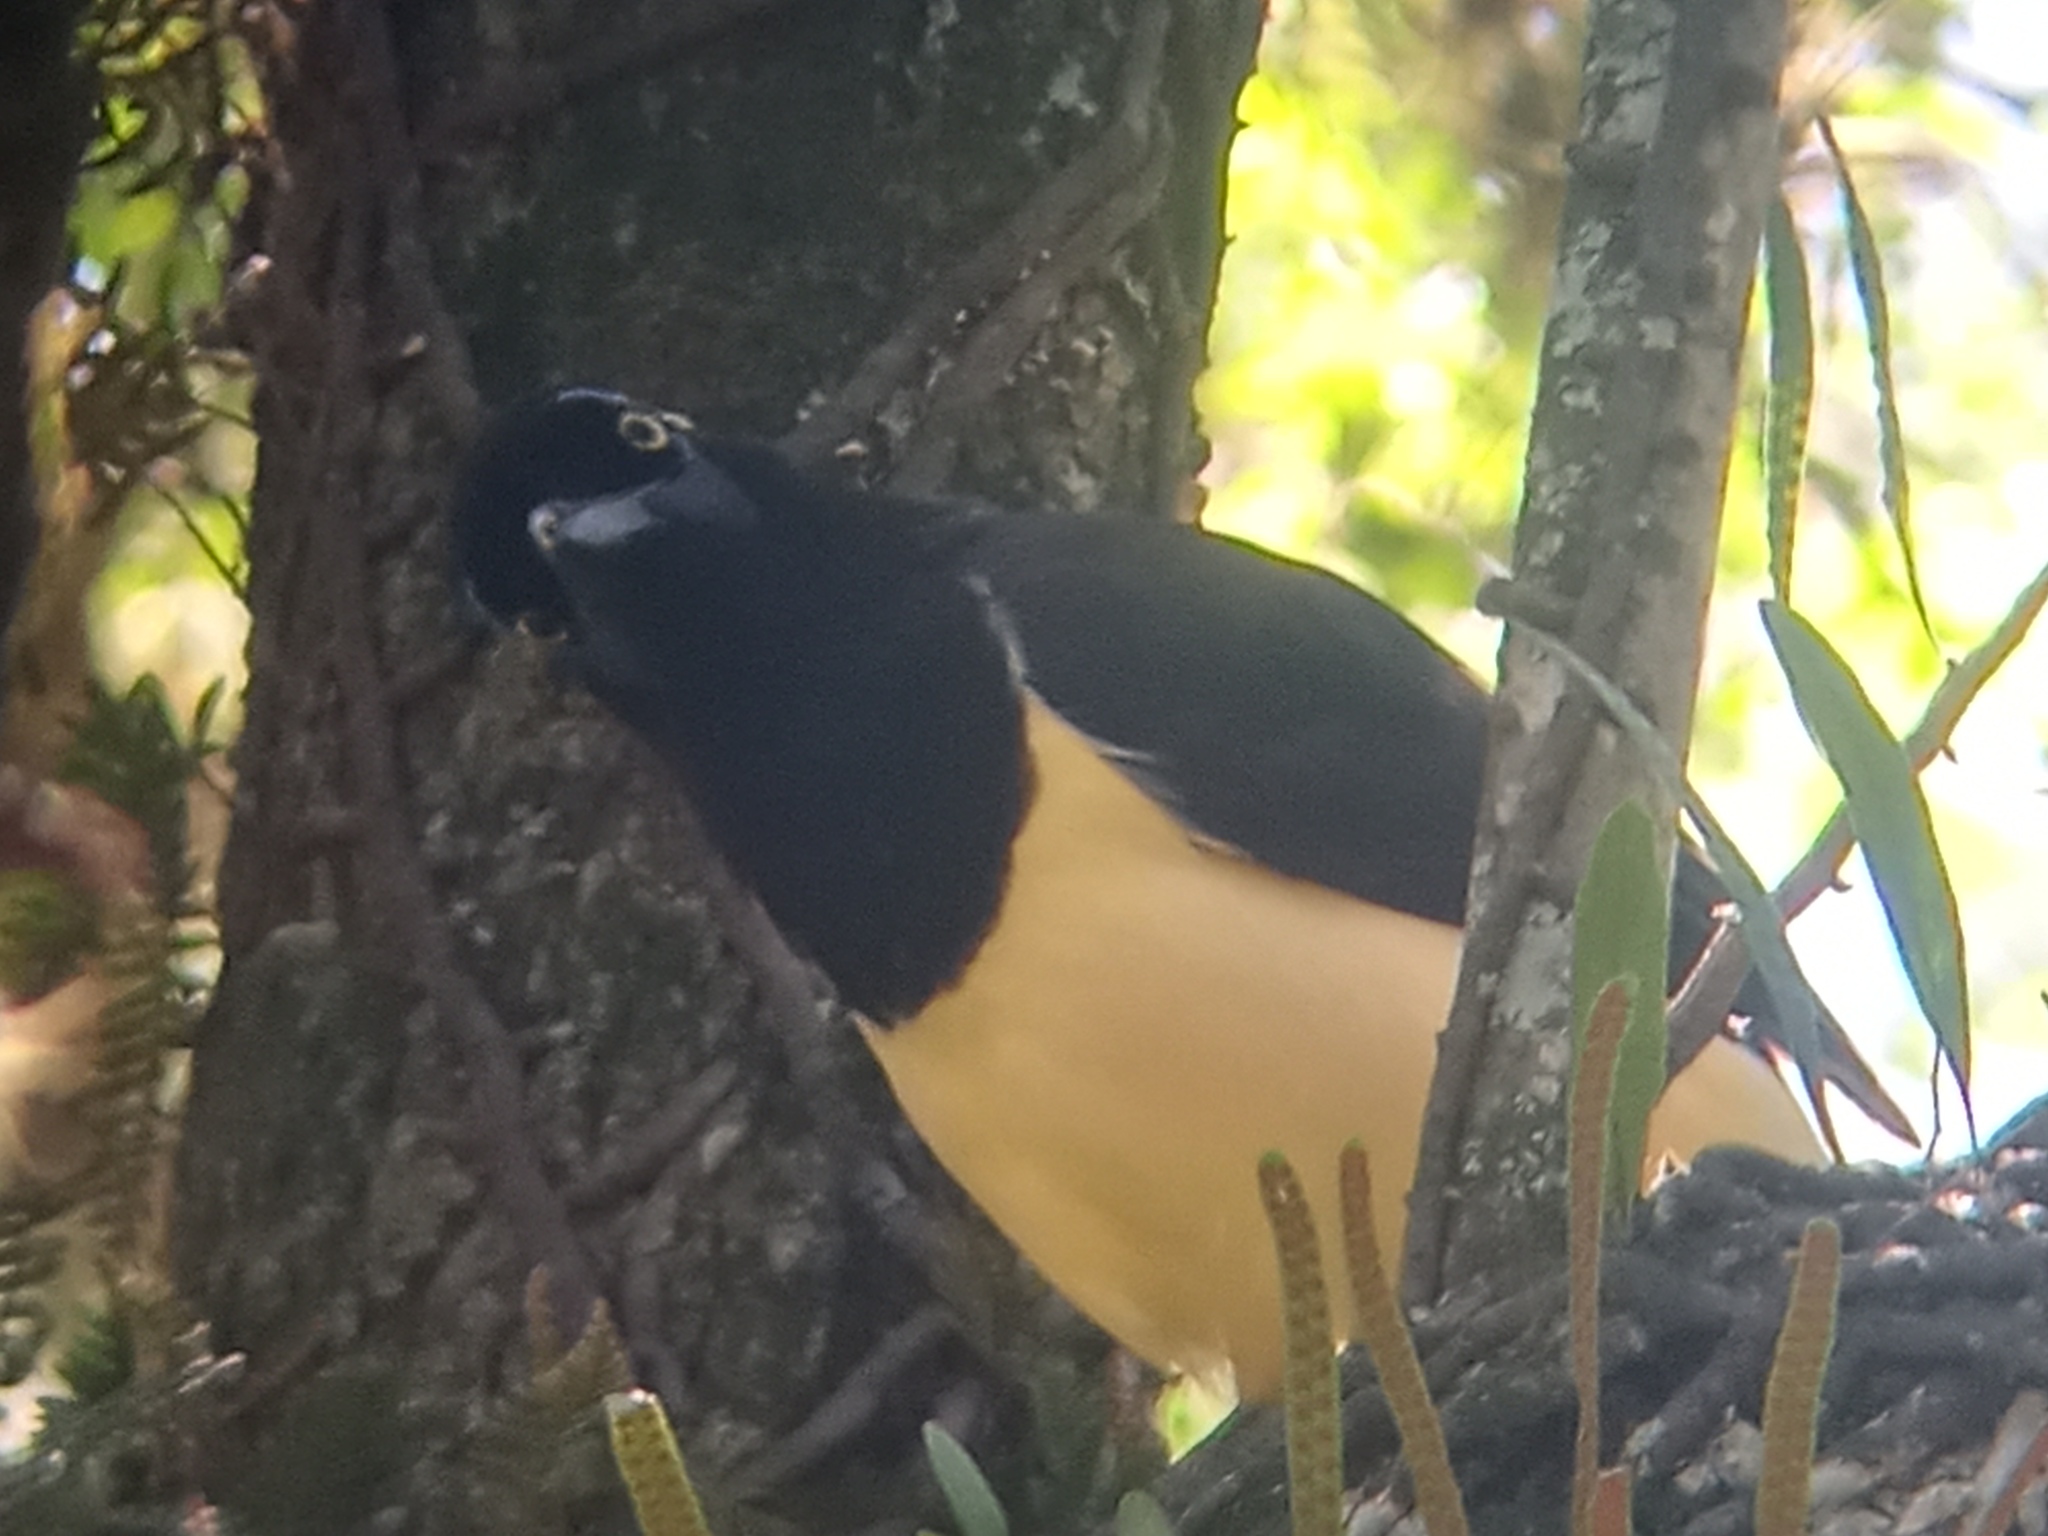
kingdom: Animalia
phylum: Chordata
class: Aves
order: Passeriformes
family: Corvidae
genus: Cyanocorax
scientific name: Cyanocorax chrysops
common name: Plush-crested jay
